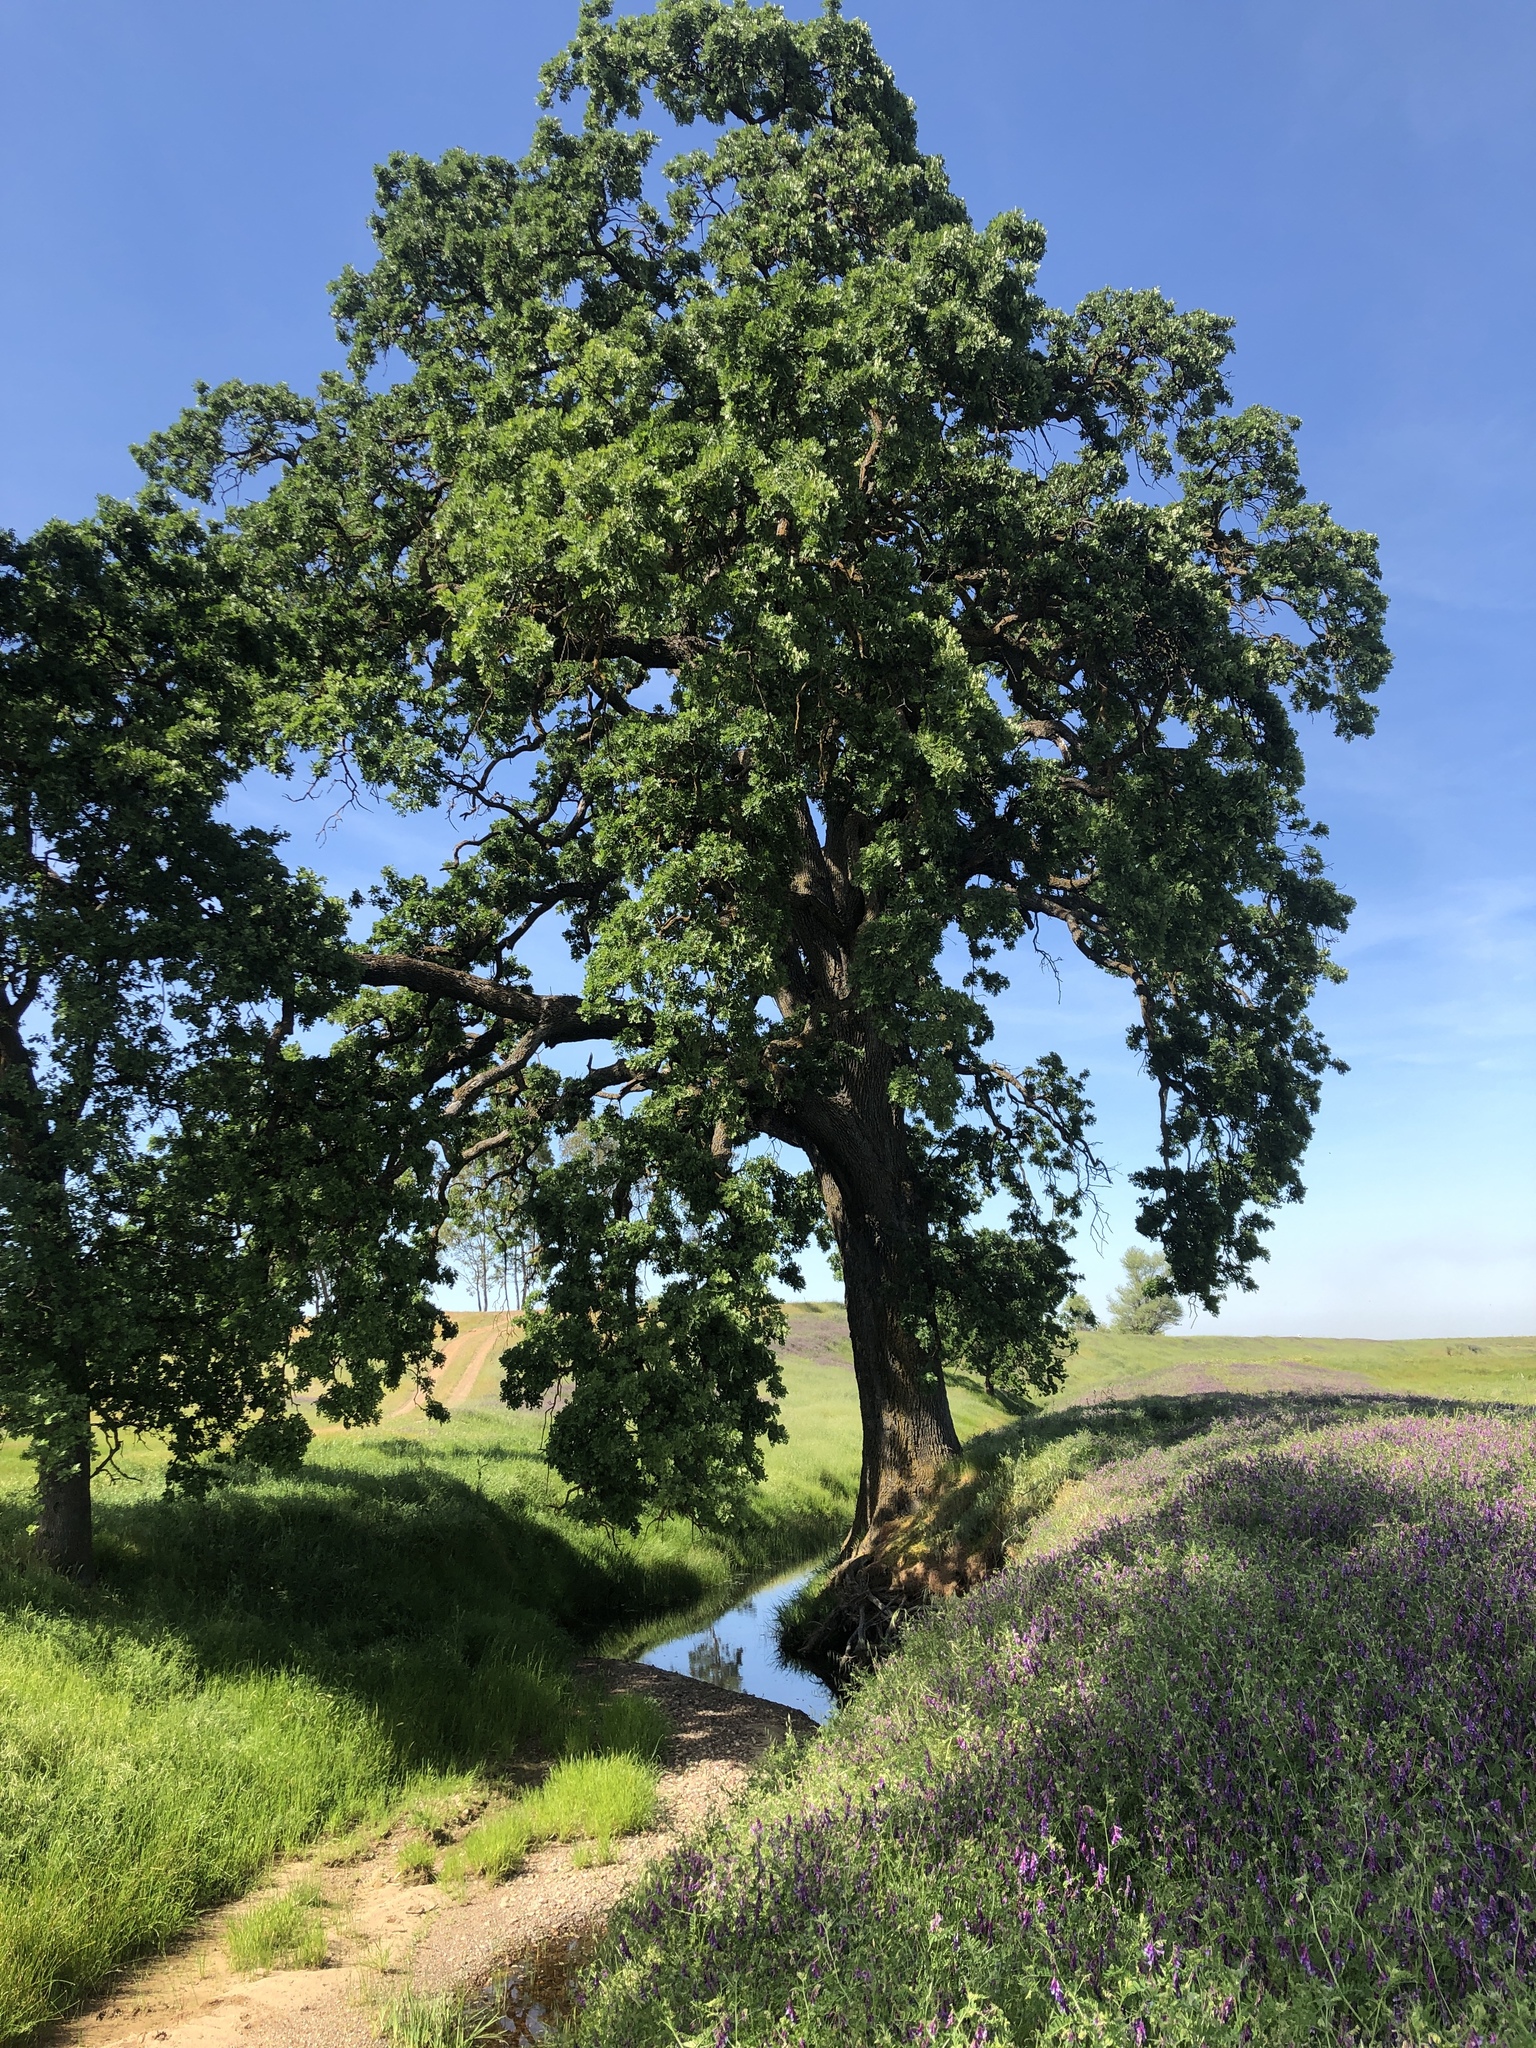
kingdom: Plantae
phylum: Tracheophyta
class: Magnoliopsida
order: Fagales
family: Fagaceae
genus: Quercus
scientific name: Quercus lobata
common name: Valley oak
